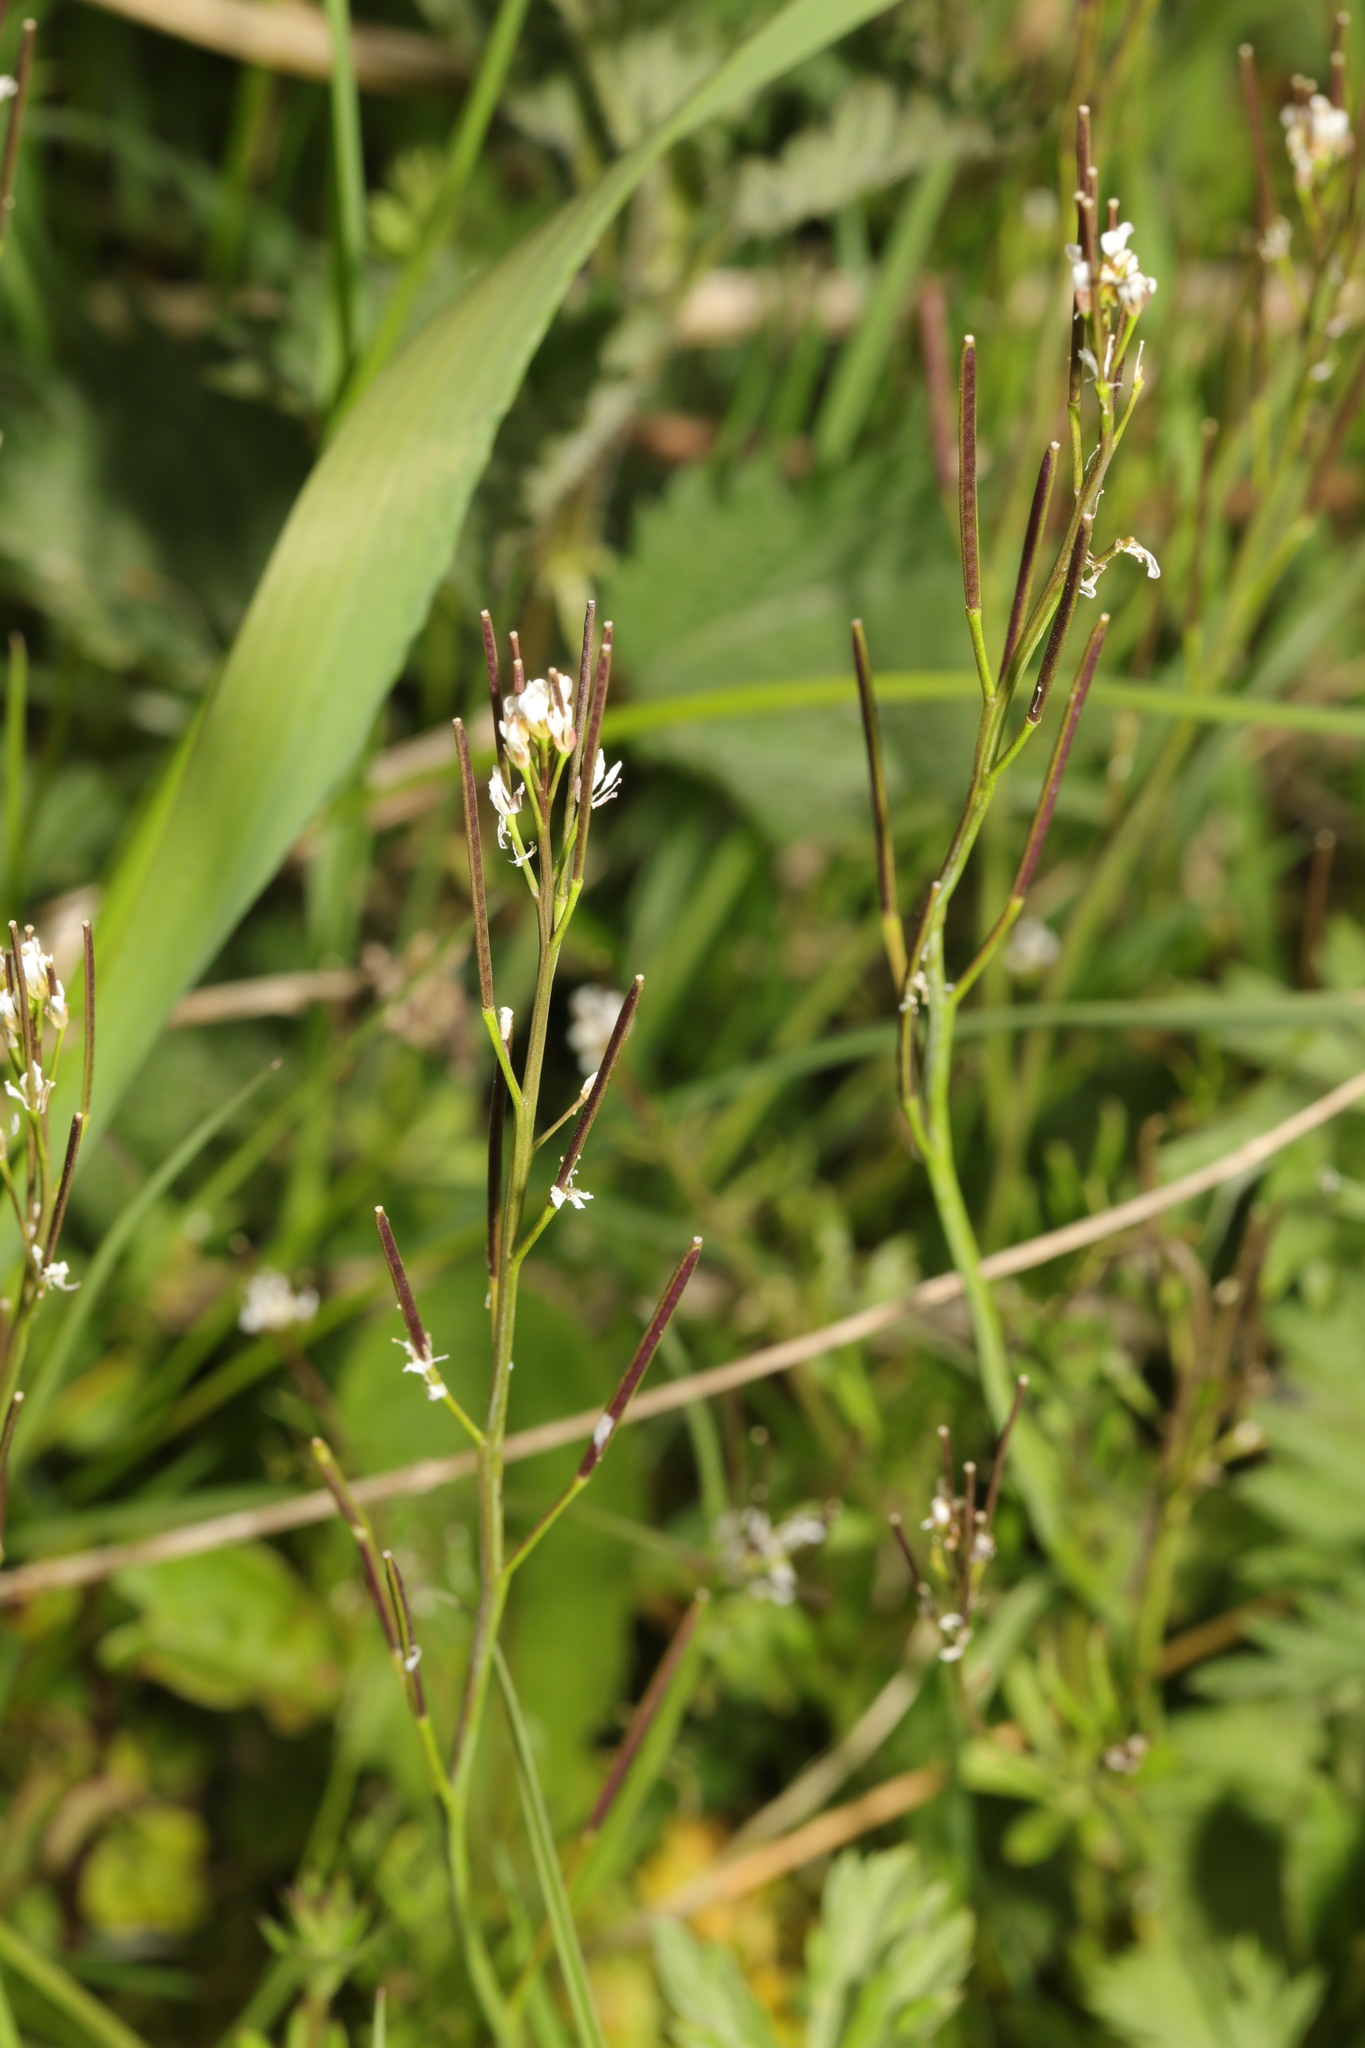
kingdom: Plantae
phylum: Tracheophyta
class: Magnoliopsida
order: Brassicales
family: Brassicaceae
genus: Cardamine
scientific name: Cardamine hirsuta
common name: Hairy bittercress
